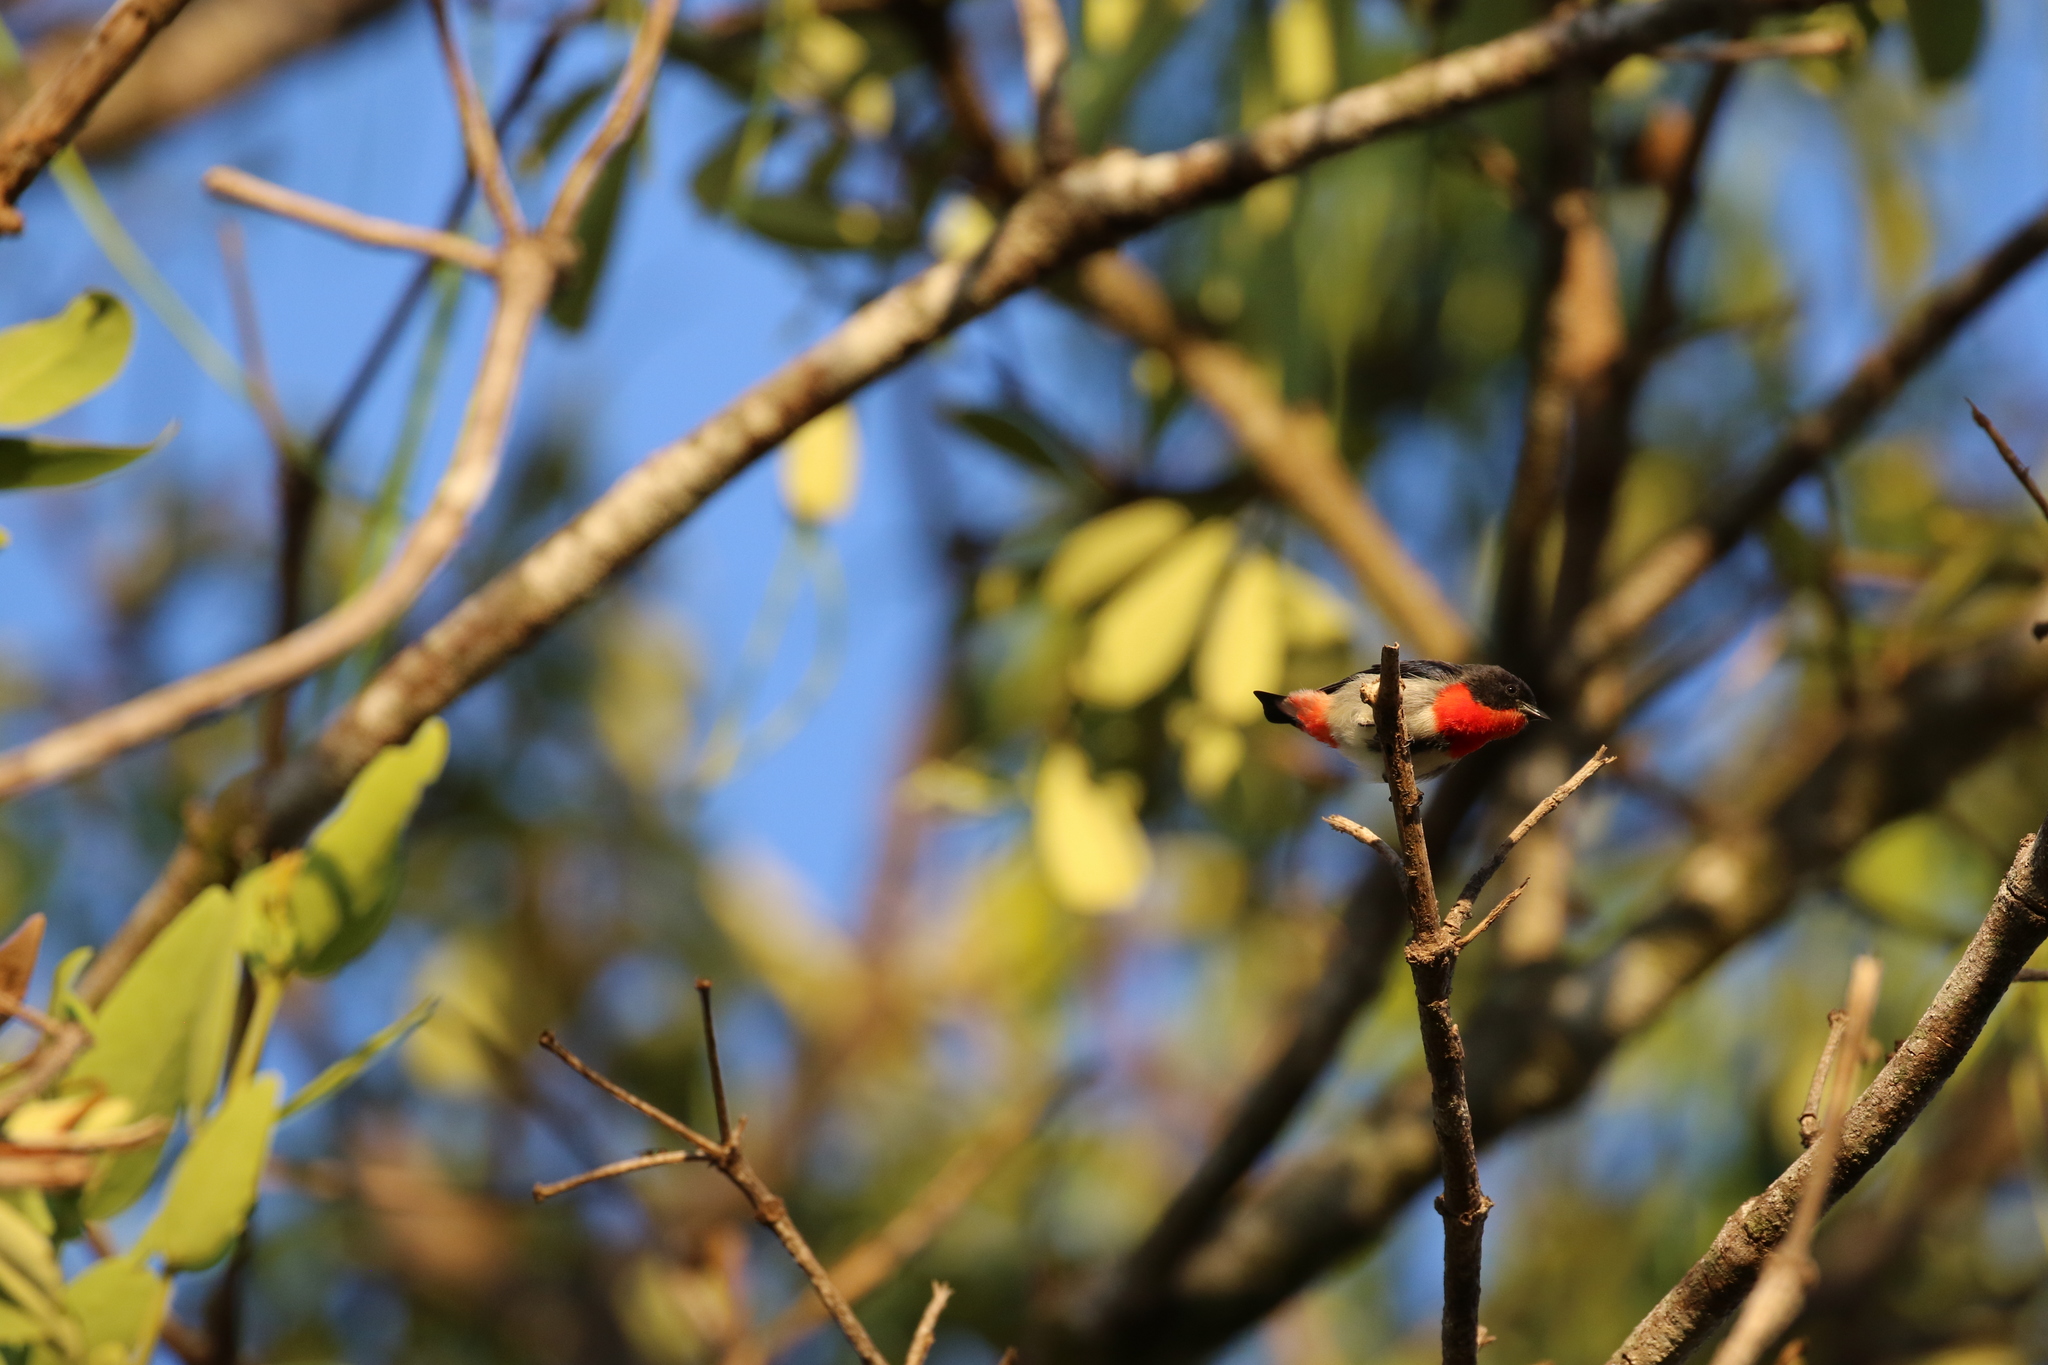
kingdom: Animalia
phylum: Chordata
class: Aves
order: Passeriformes
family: Dicaeidae
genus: Dicaeum
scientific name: Dicaeum hirundinaceum
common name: Mistletoebird
